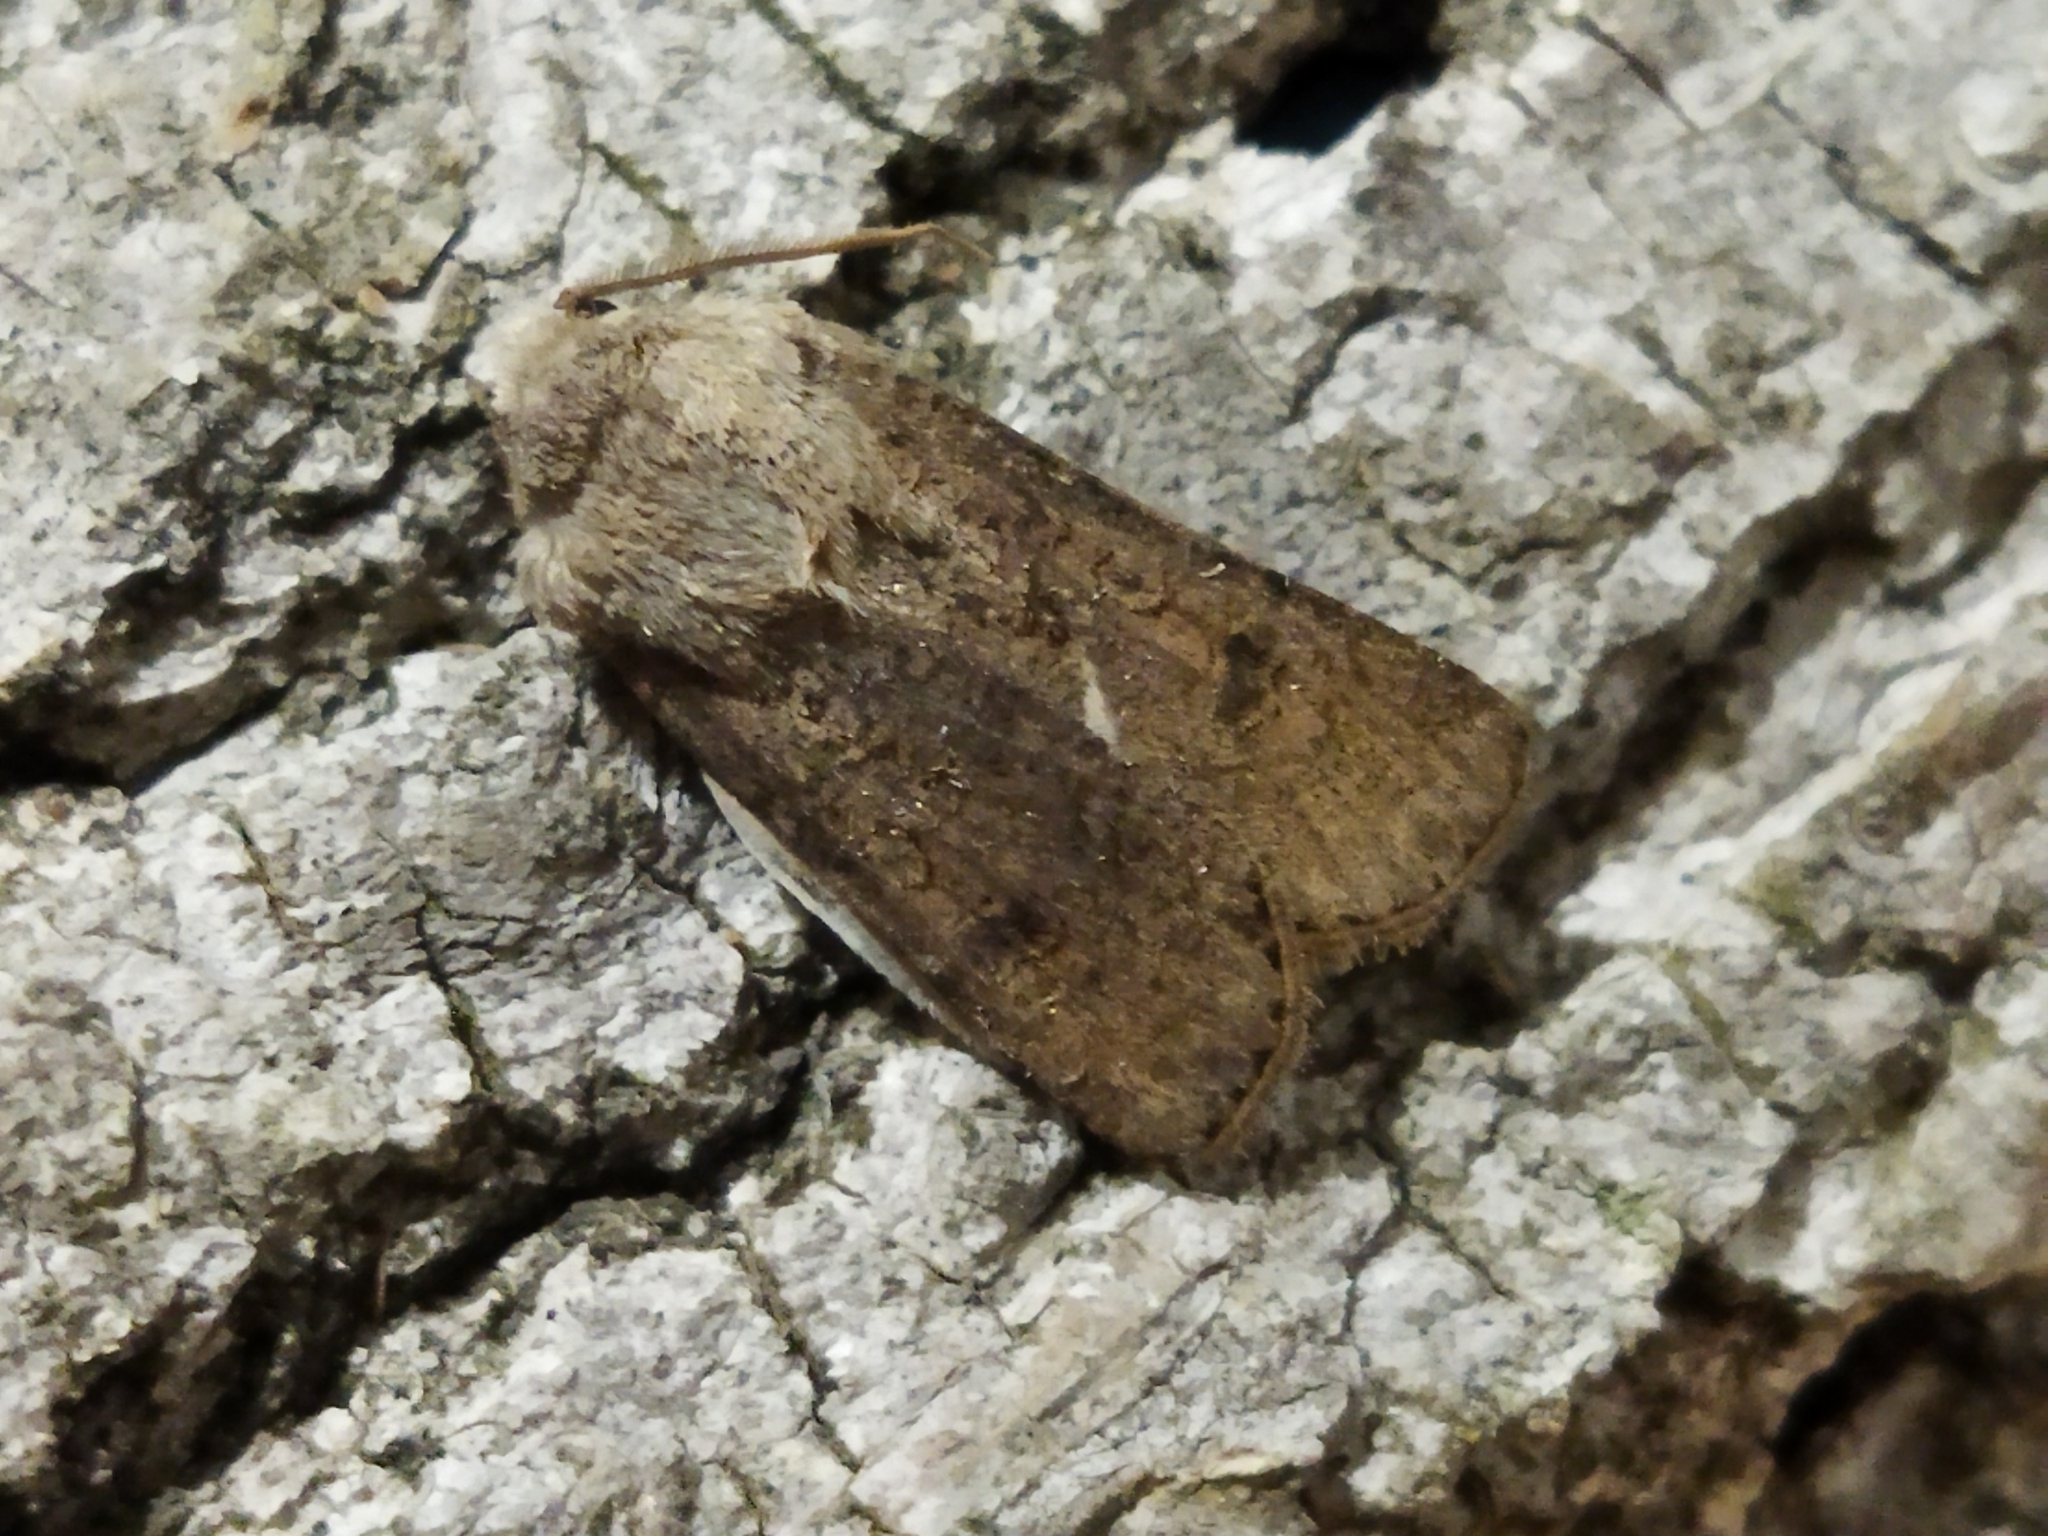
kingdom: Animalia
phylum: Arthropoda
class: Insecta
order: Lepidoptera
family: Noctuidae
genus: Agrotis
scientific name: Agrotis segetum
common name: Turnip moth
